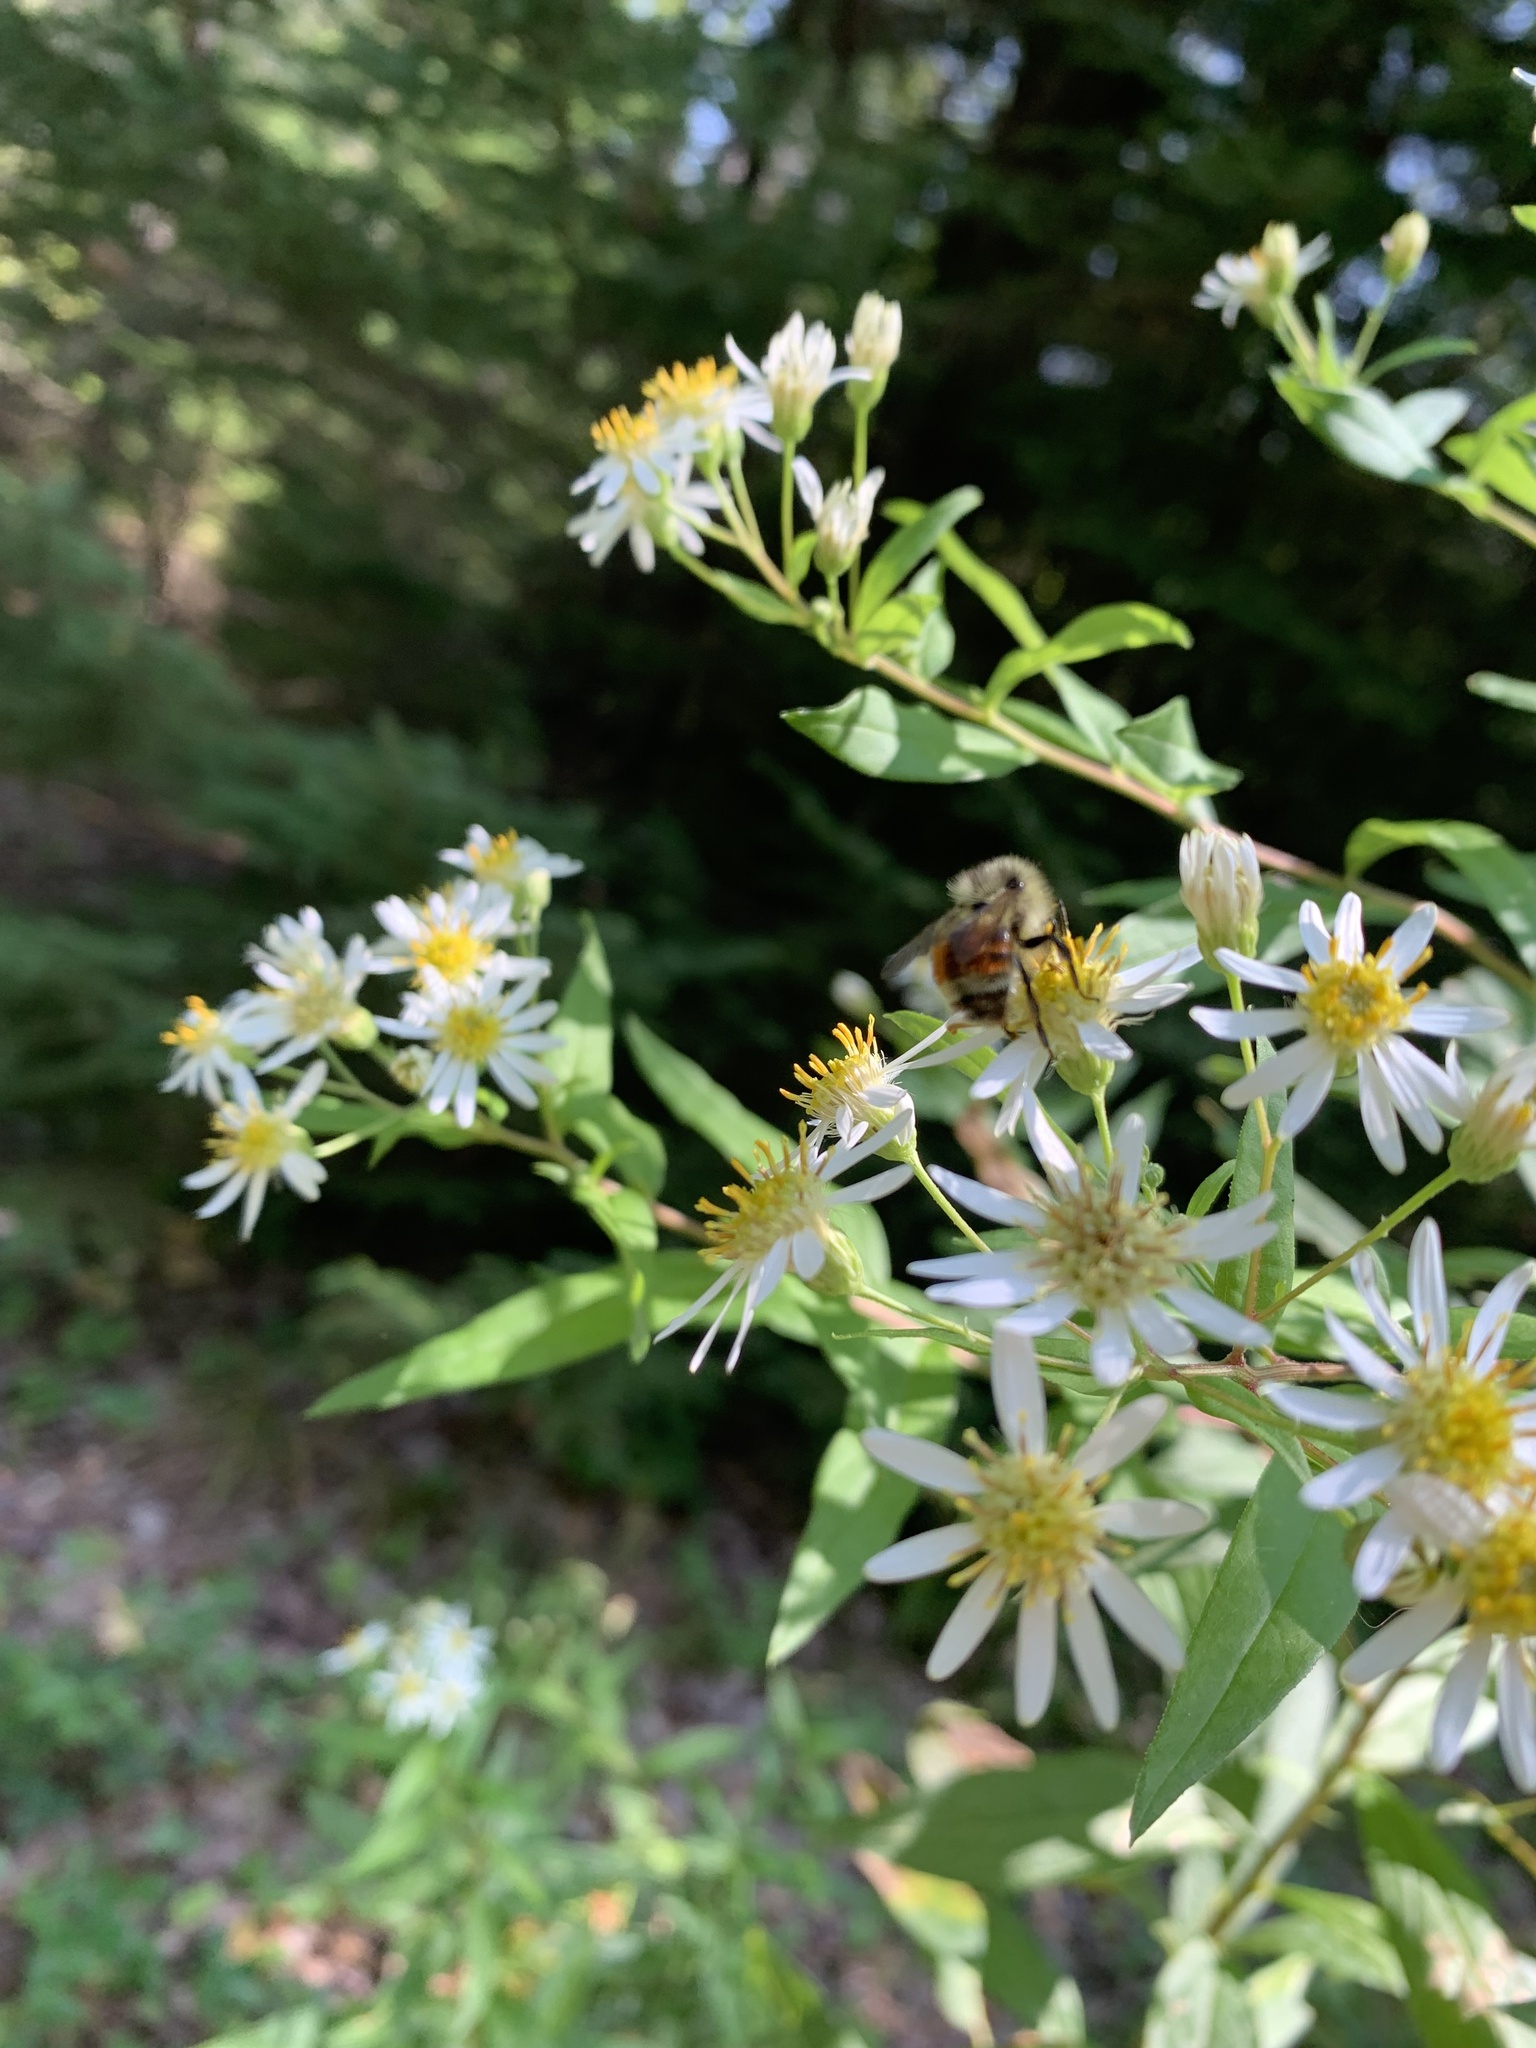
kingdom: Animalia
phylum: Arthropoda
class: Insecta
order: Hymenoptera
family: Apidae
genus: Bombus
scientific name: Bombus ternarius
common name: Tri-colored bumble bee
